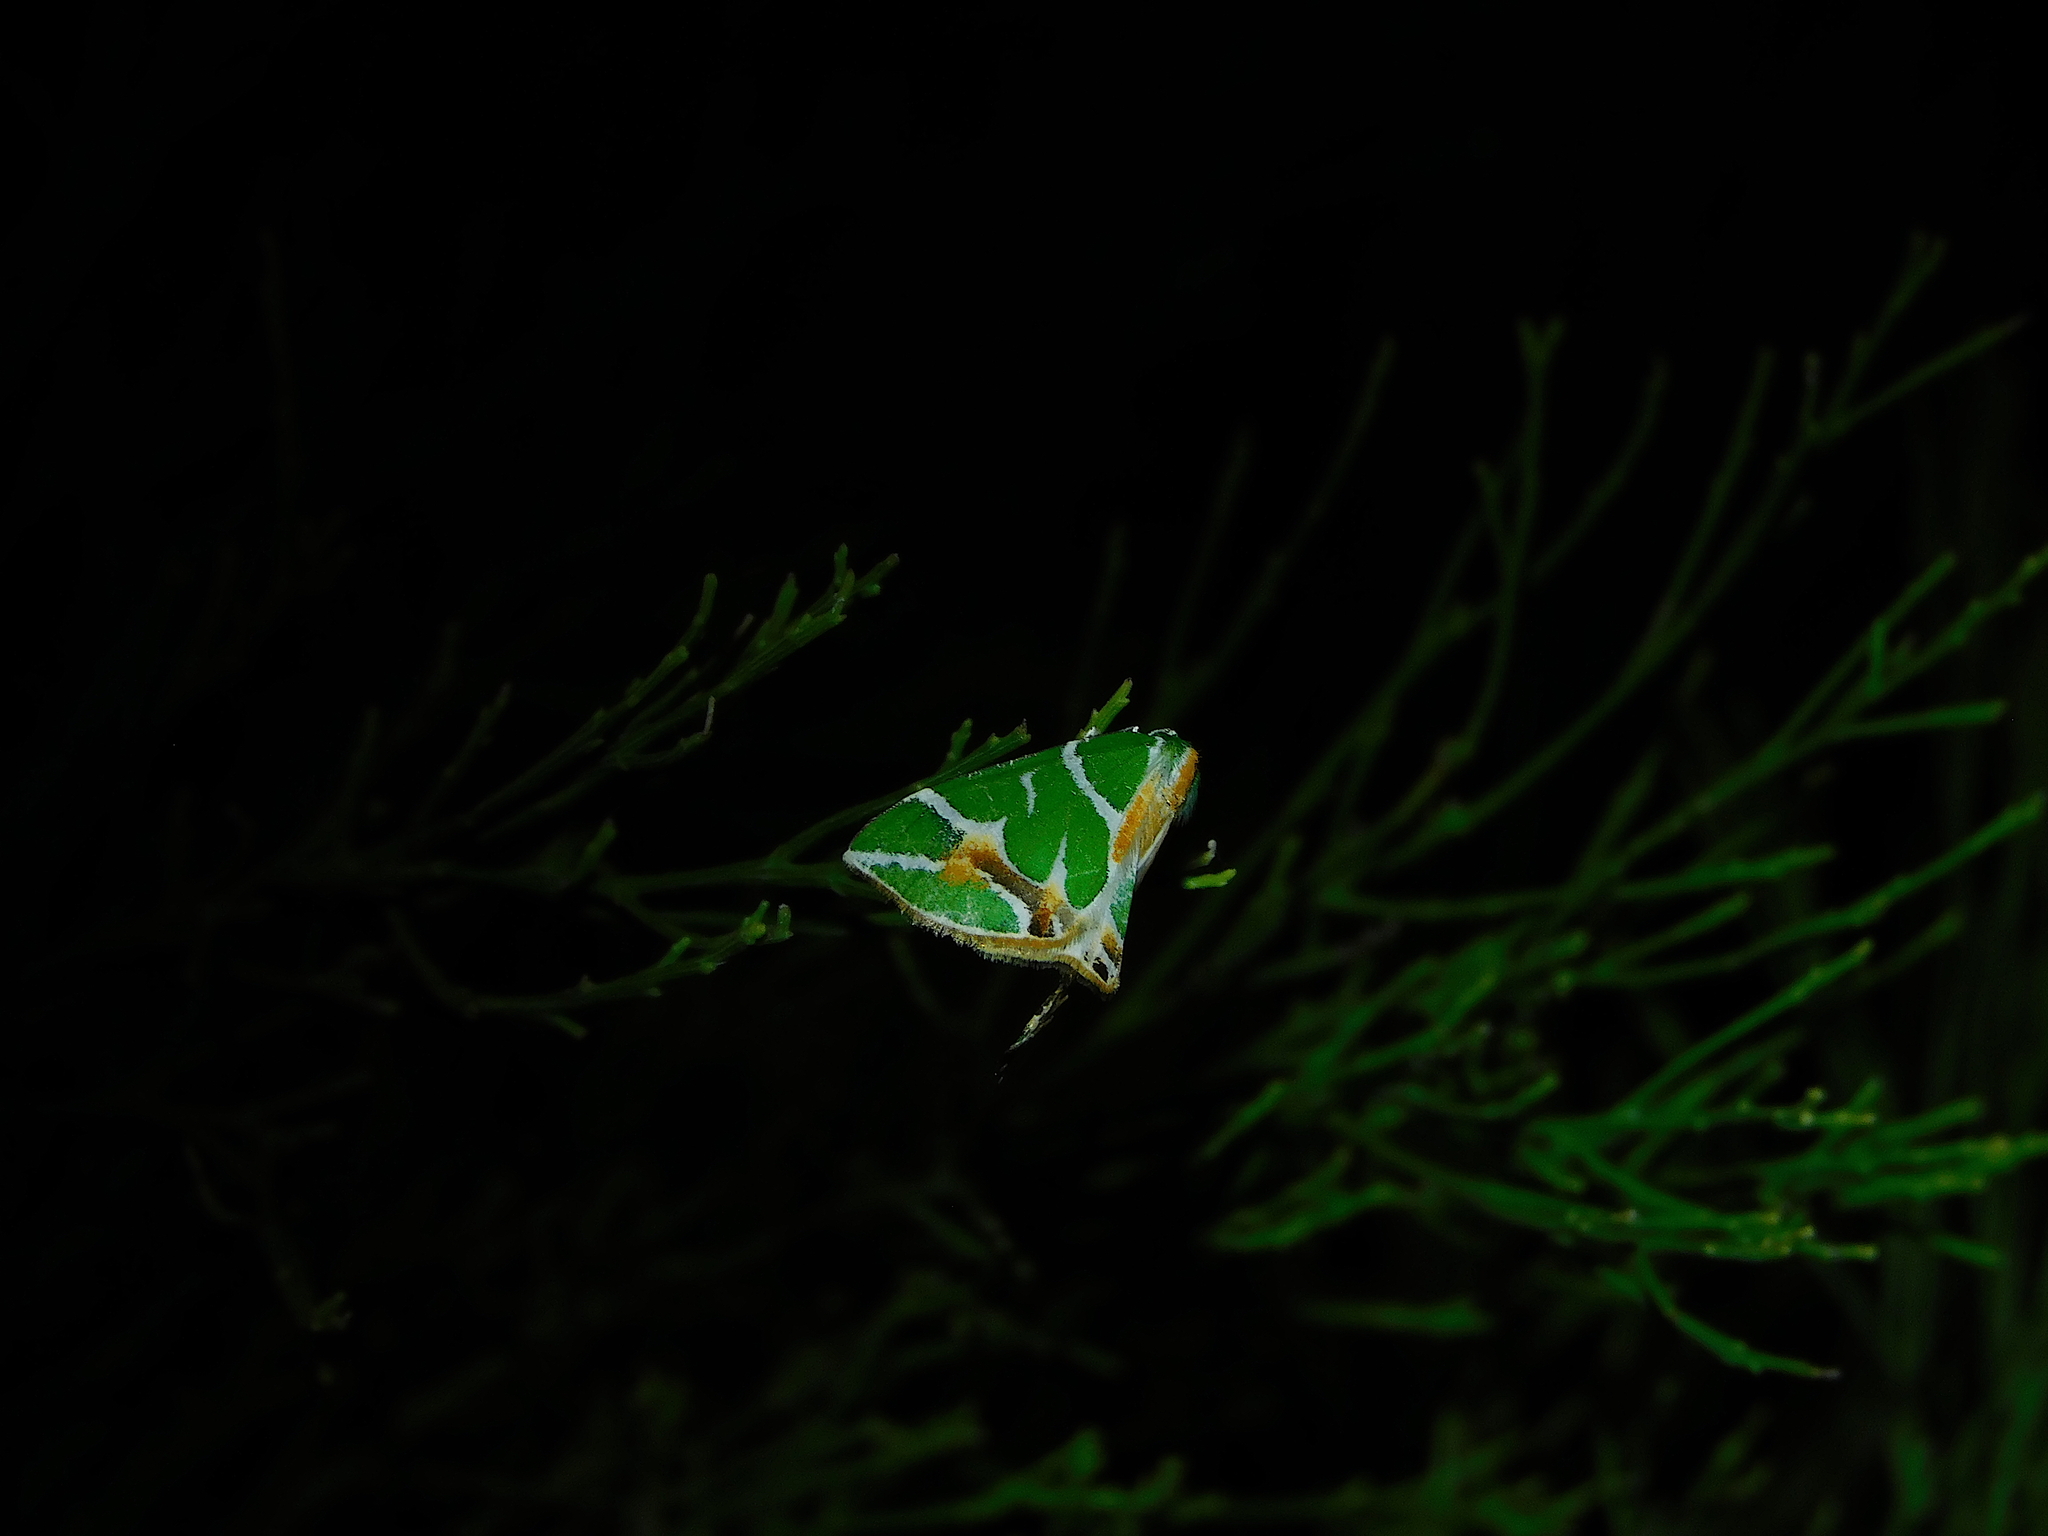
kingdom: Animalia
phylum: Arthropoda
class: Insecta
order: Lepidoptera
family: Geometridae
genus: Chlorodes
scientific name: Chlorodes boisduvalaria
